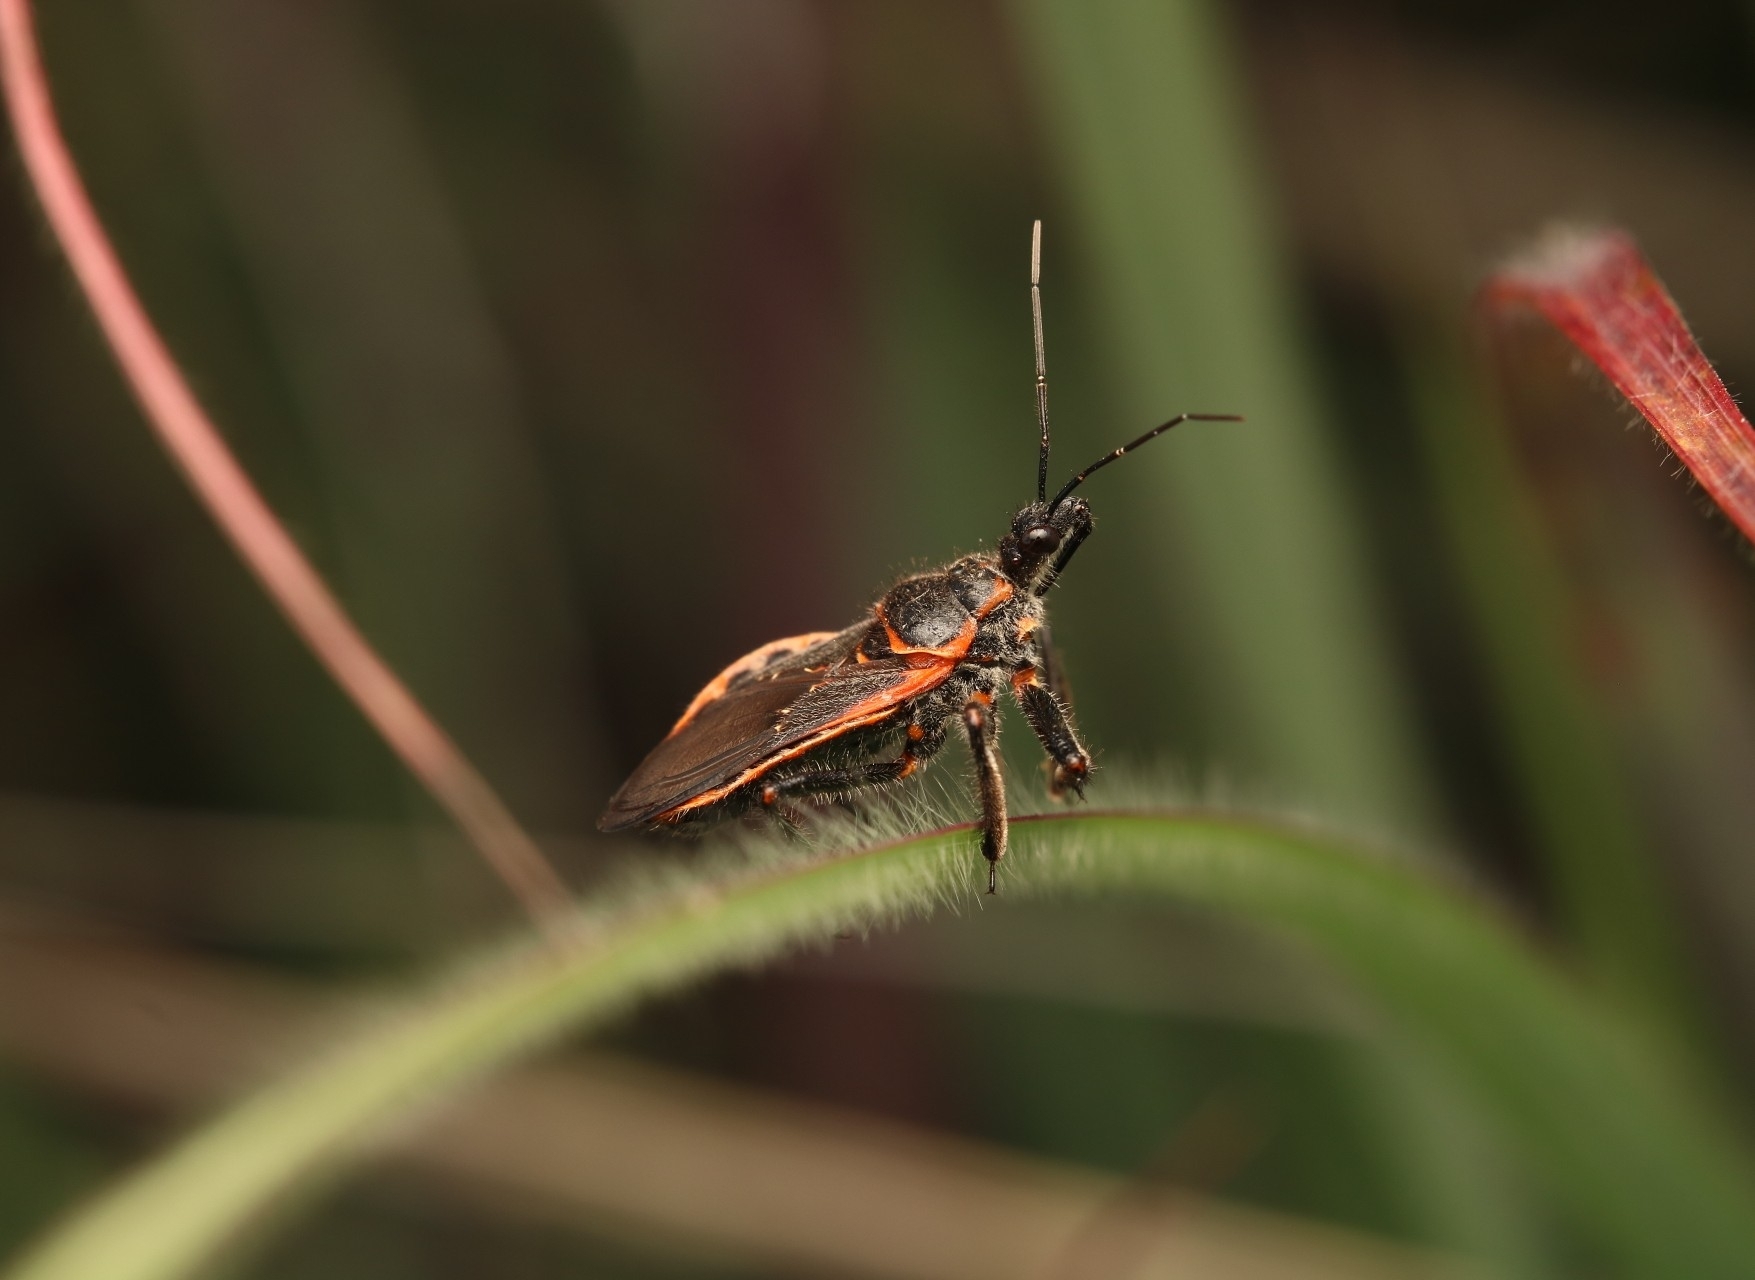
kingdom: Animalia
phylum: Arthropoda
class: Insecta
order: Hemiptera
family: Reduviidae
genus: Apiomerus
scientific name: Apiomerus crassipes
